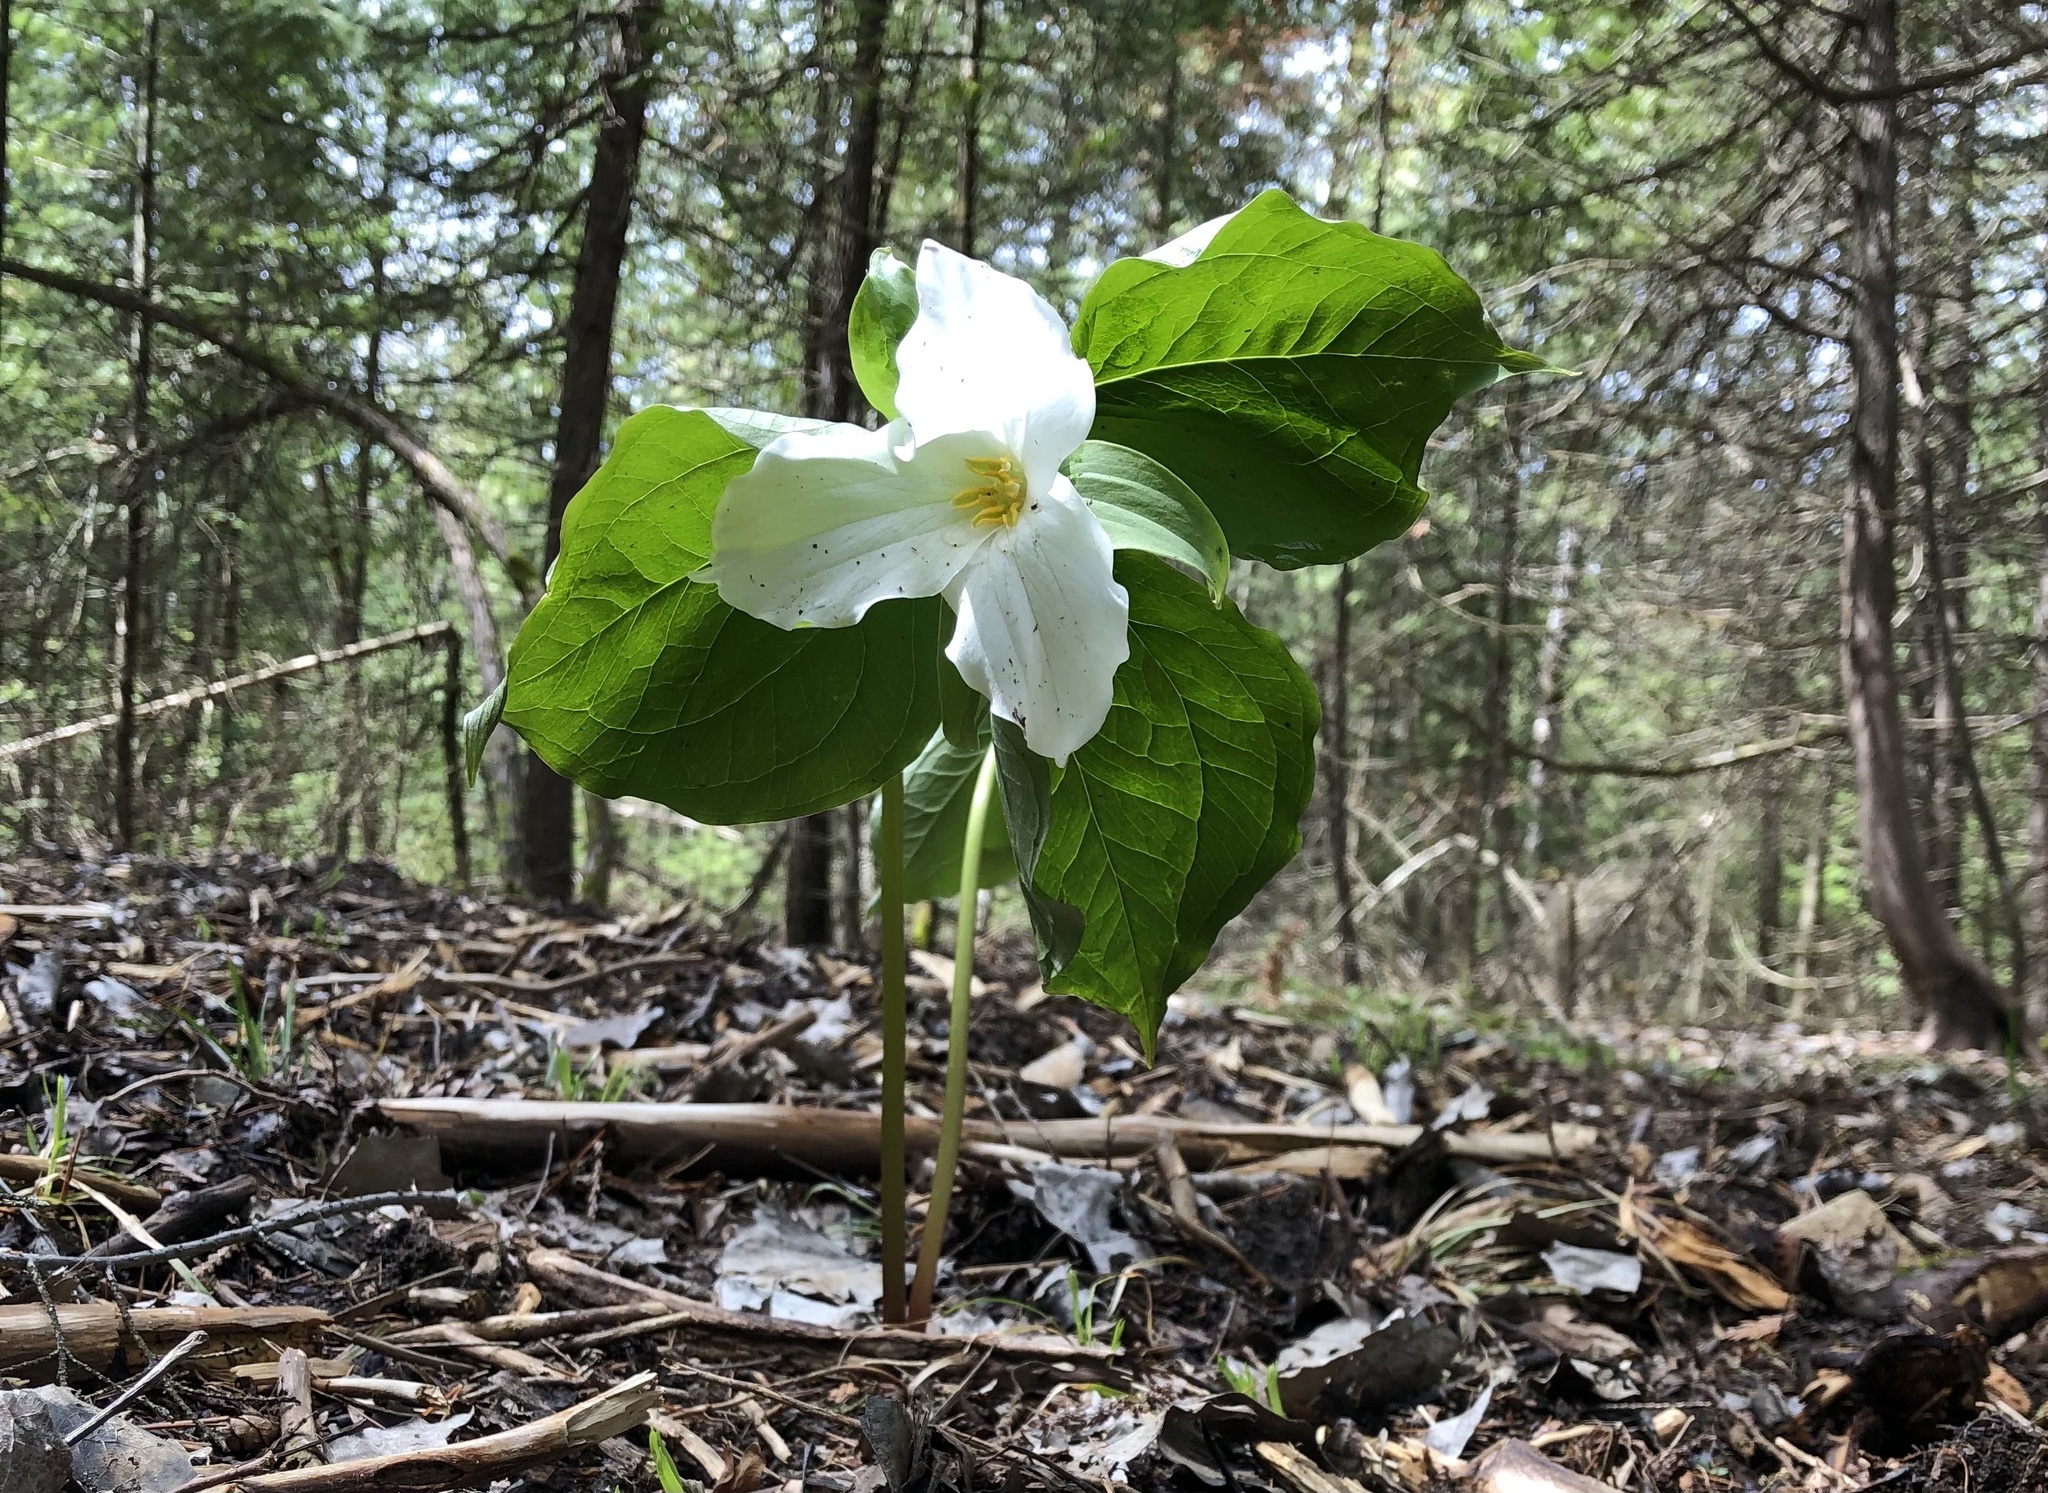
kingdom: Plantae
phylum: Tracheophyta
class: Liliopsida
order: Liliales
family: Melanthiaceae
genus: Trillium
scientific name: Trillium grandiflorum
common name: Great white trillium
